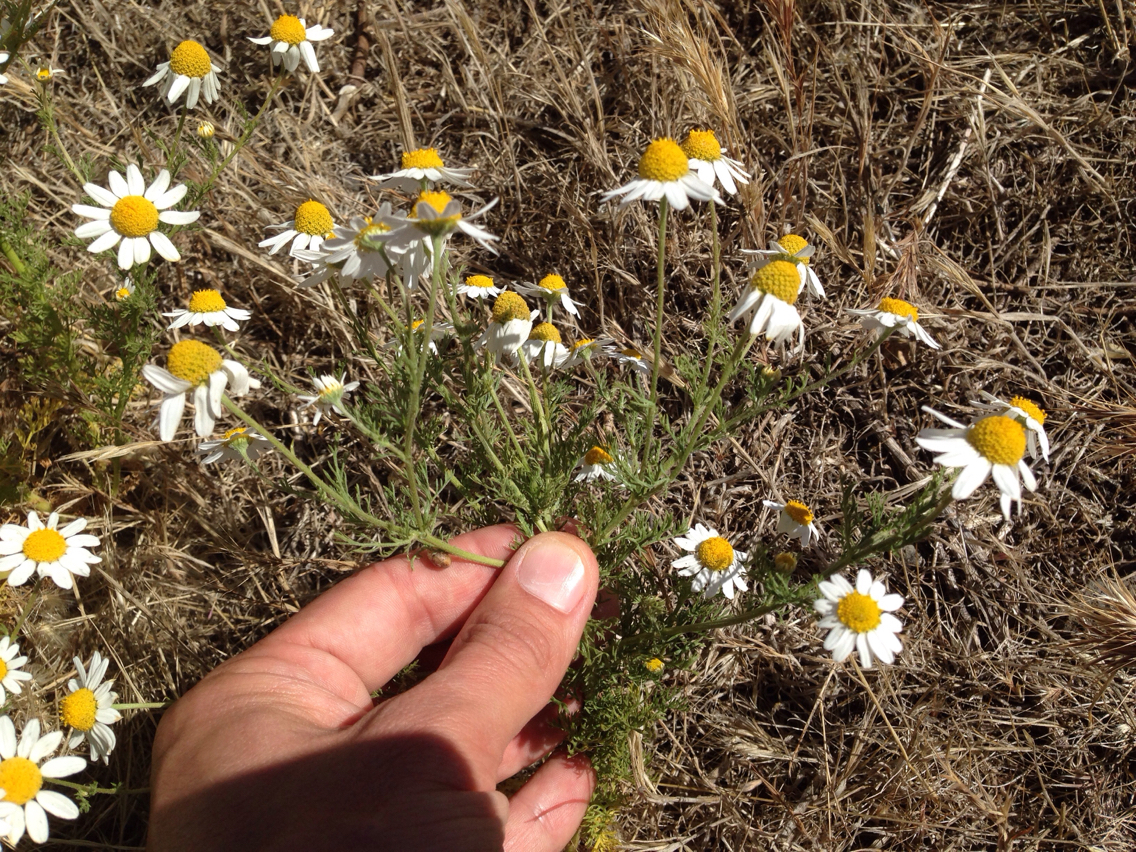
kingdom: Plantae
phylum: Tracheophyta
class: Magnoliopsida
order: Asterales
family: Asteraceae
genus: Anthemis
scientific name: Anthemis cotula
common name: Stinking chamomile
